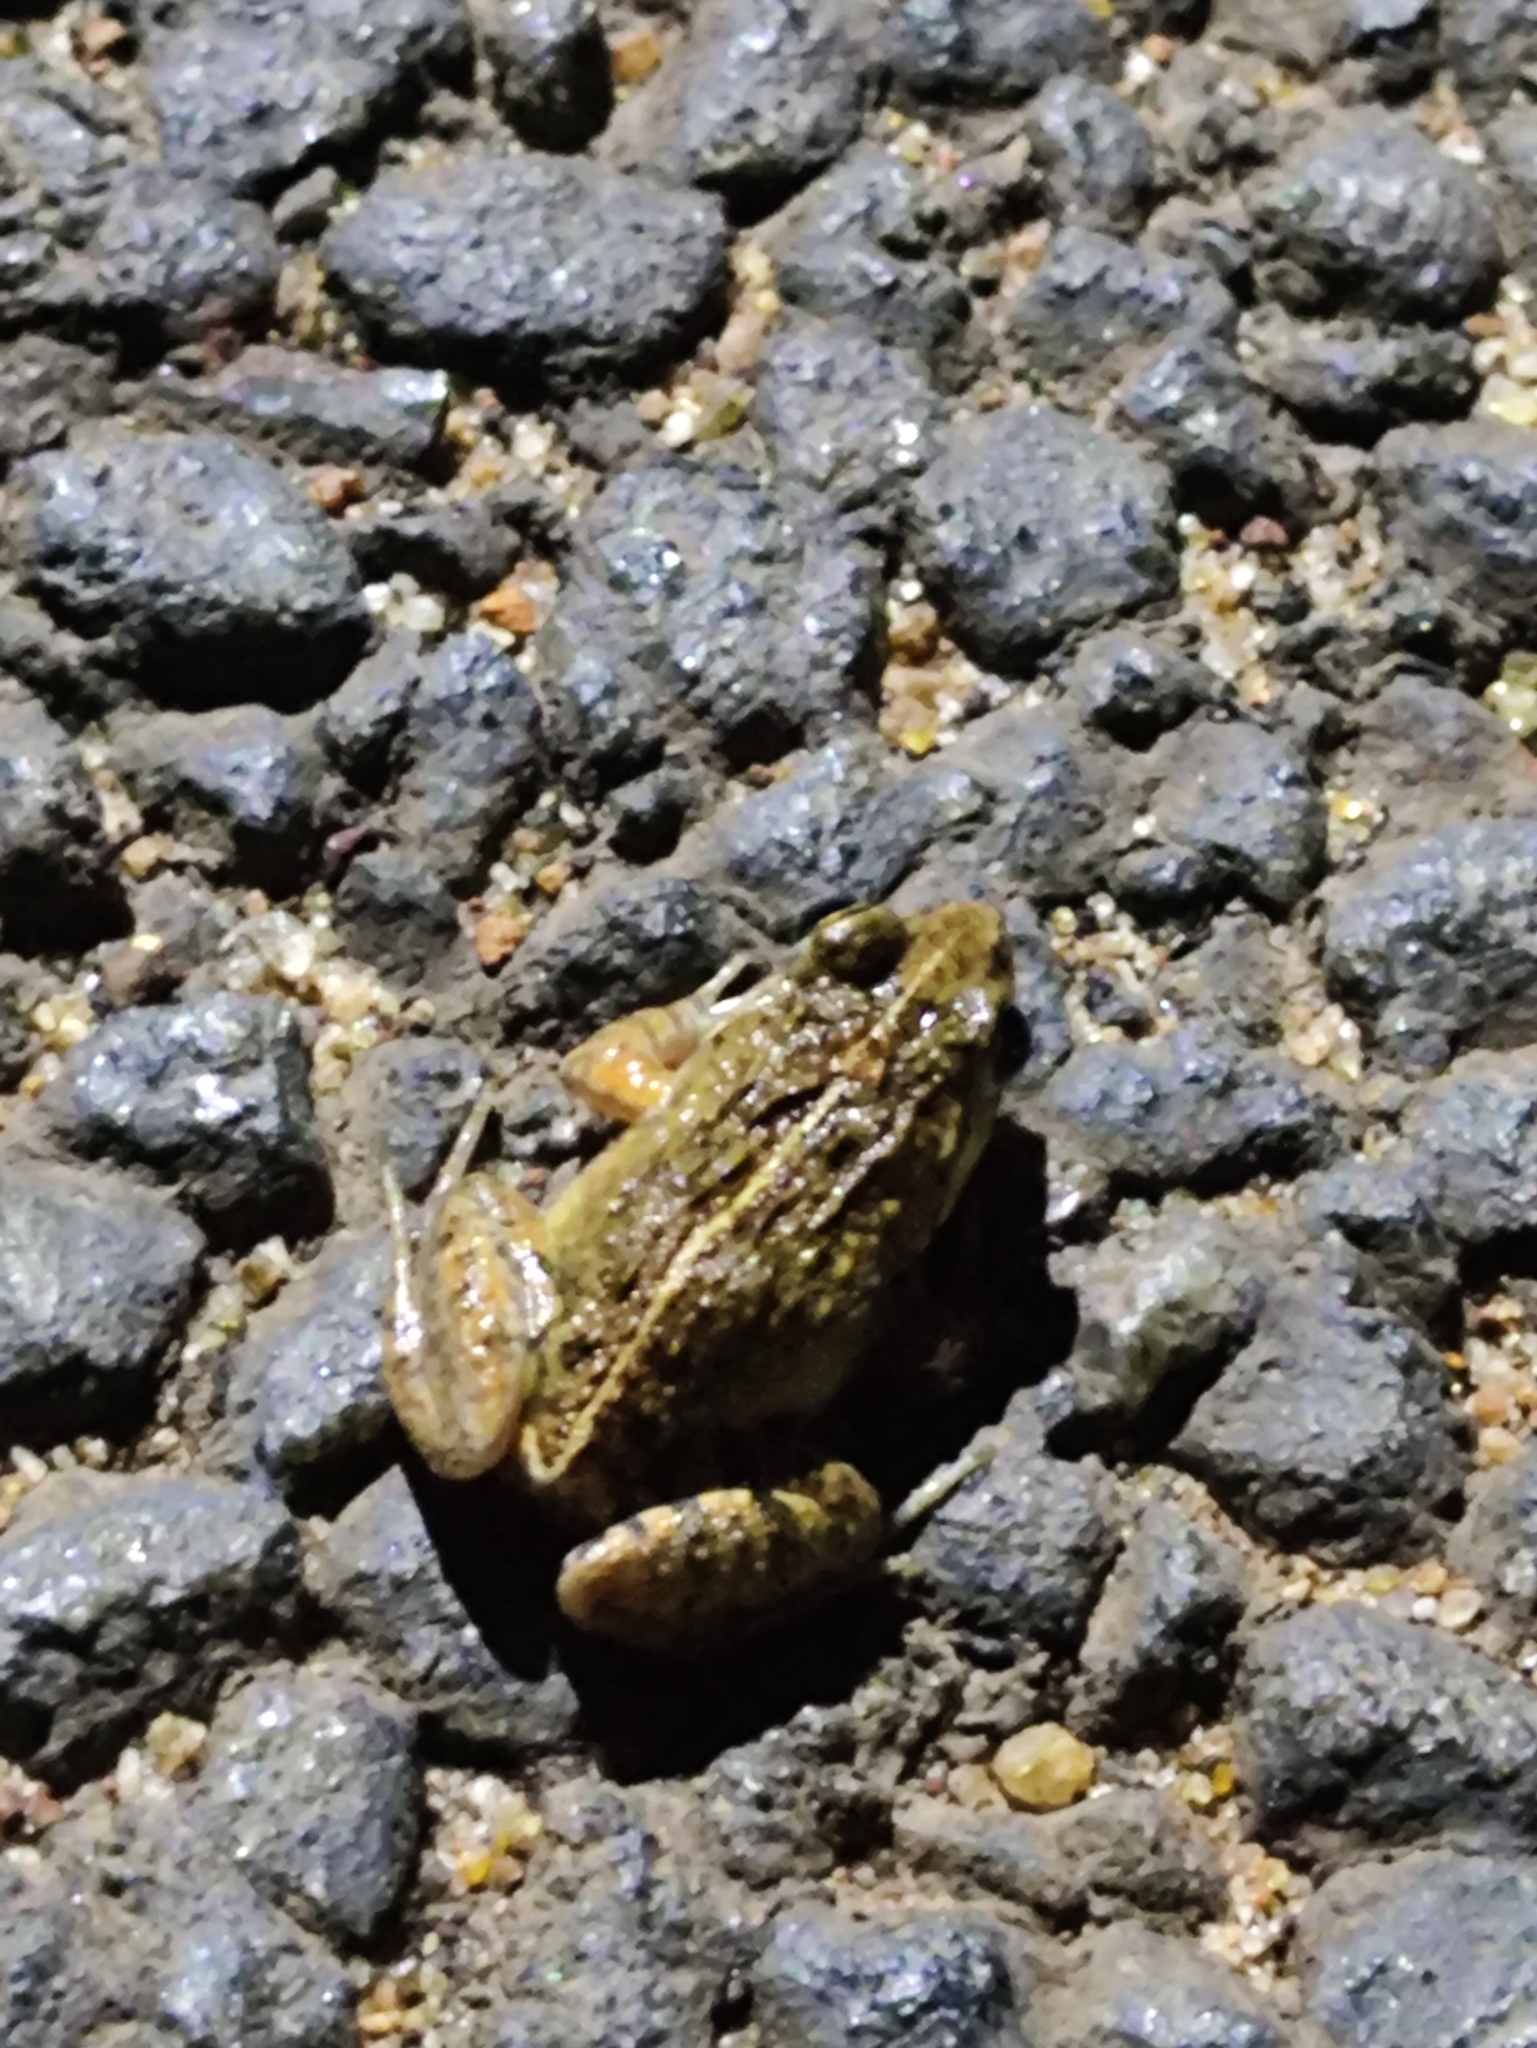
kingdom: Animalia
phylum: Chordata
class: Amphibia
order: Anura
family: Dicroglossidae
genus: Hoplobatrachus
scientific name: Hoplobatrachus tigerinus
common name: Indian bullfrog
